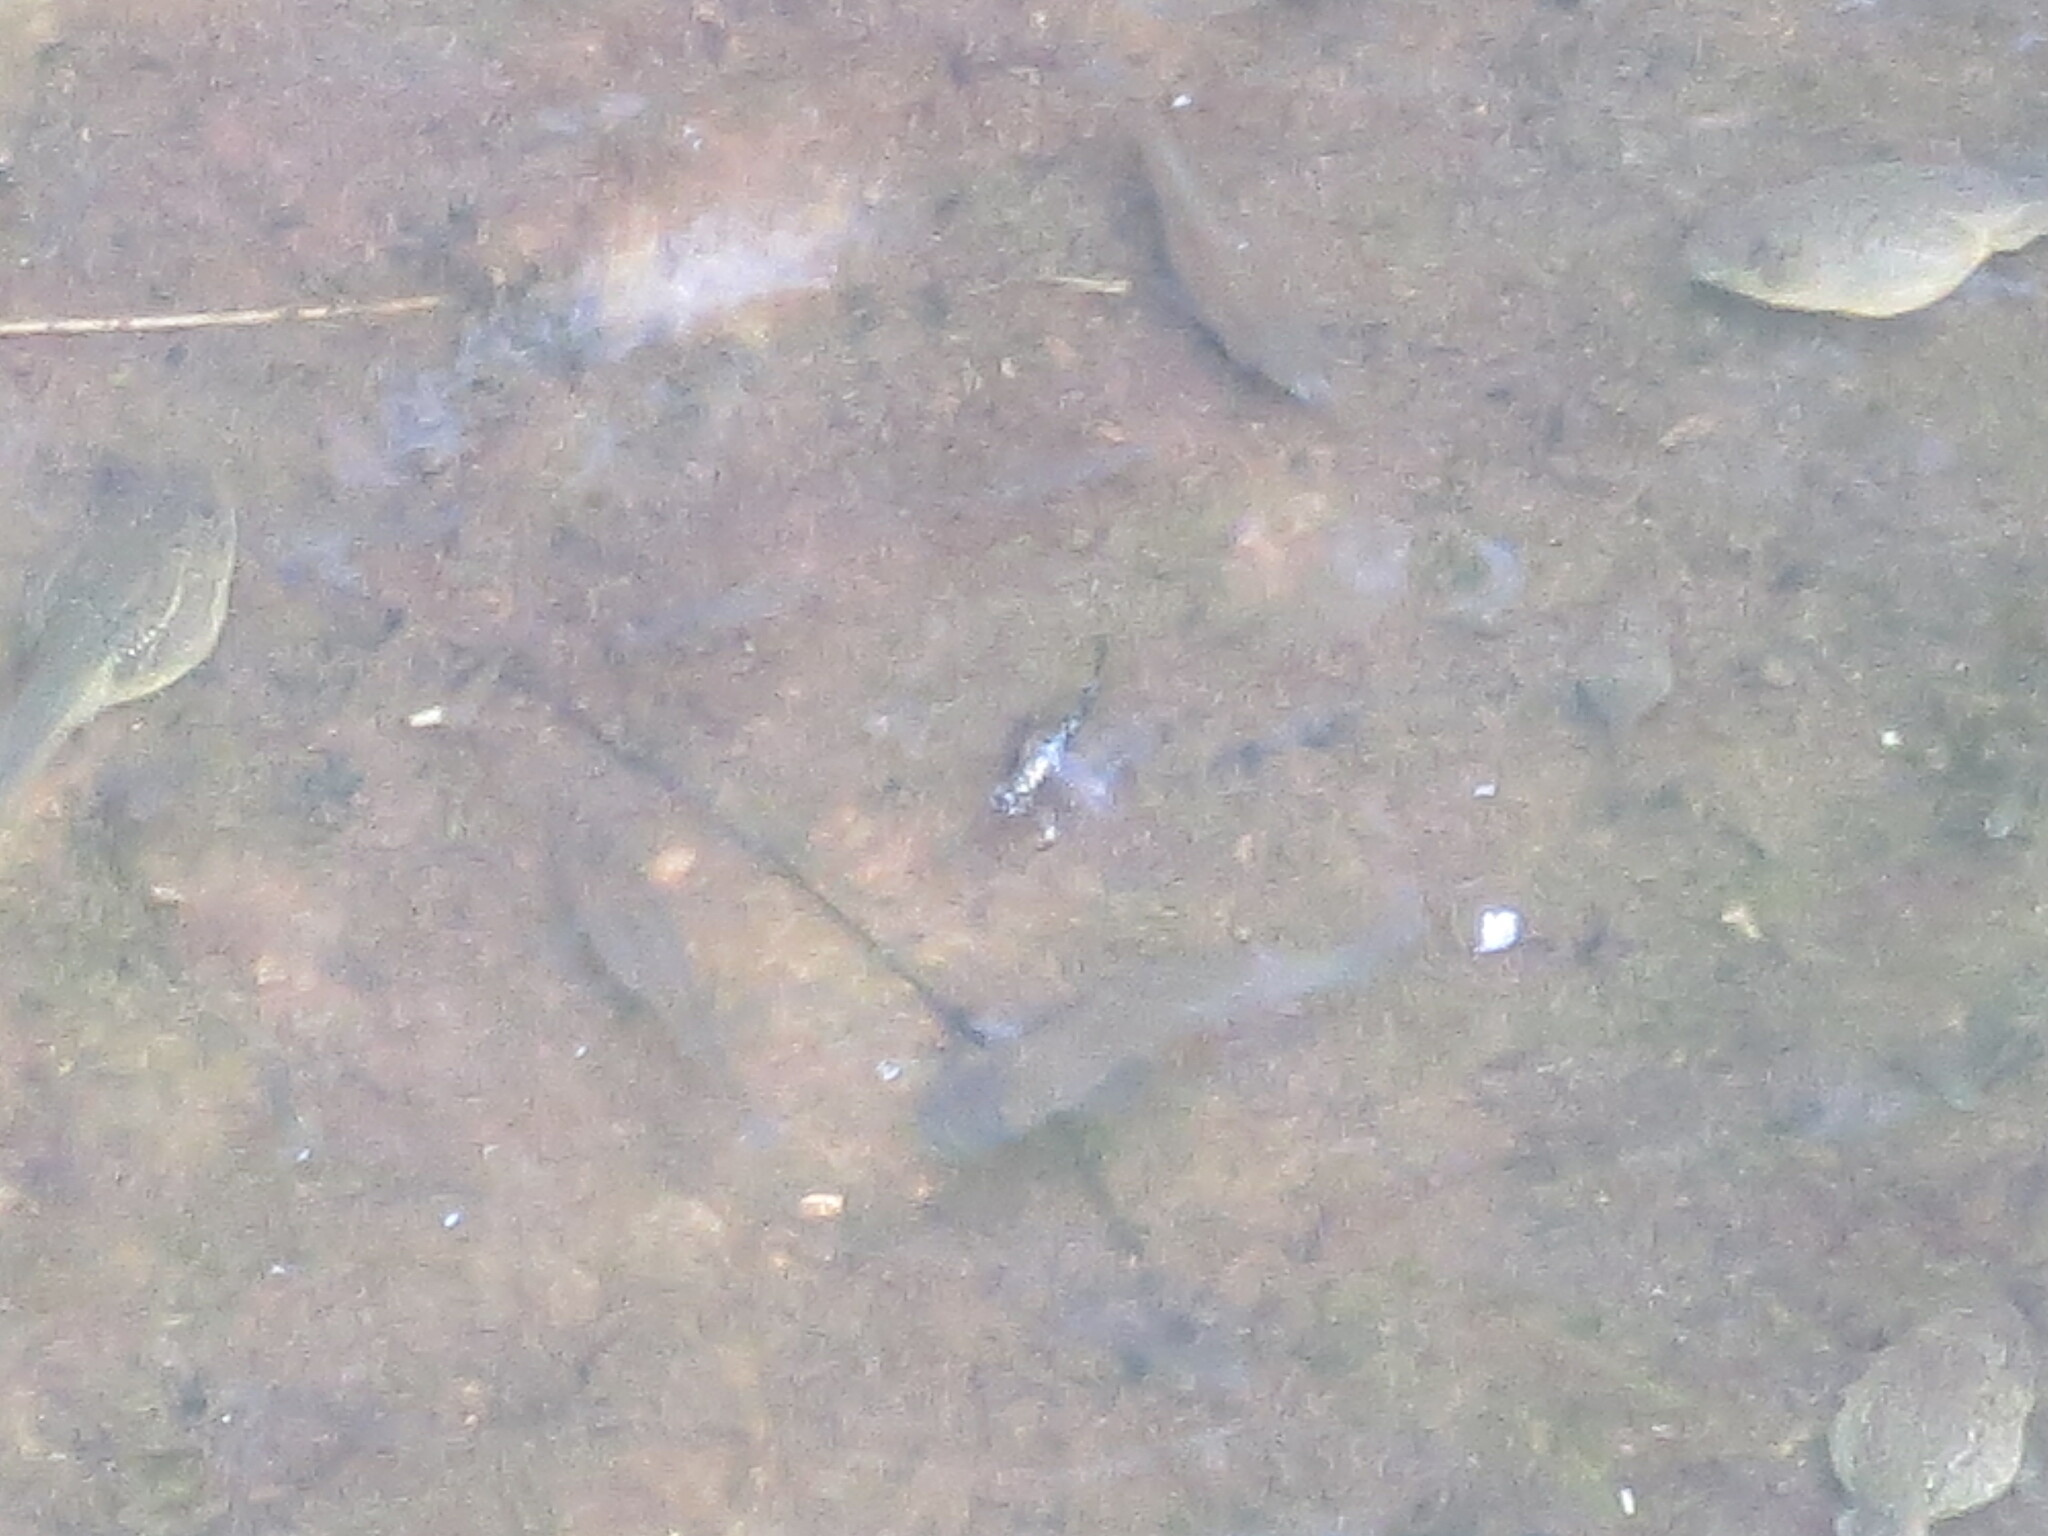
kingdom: Animalia
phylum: Chordata
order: Cyprinodontiformes
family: Poeciliidae
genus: Gambusia
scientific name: Gambusia holbrooki
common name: Eastern mosquitofish
